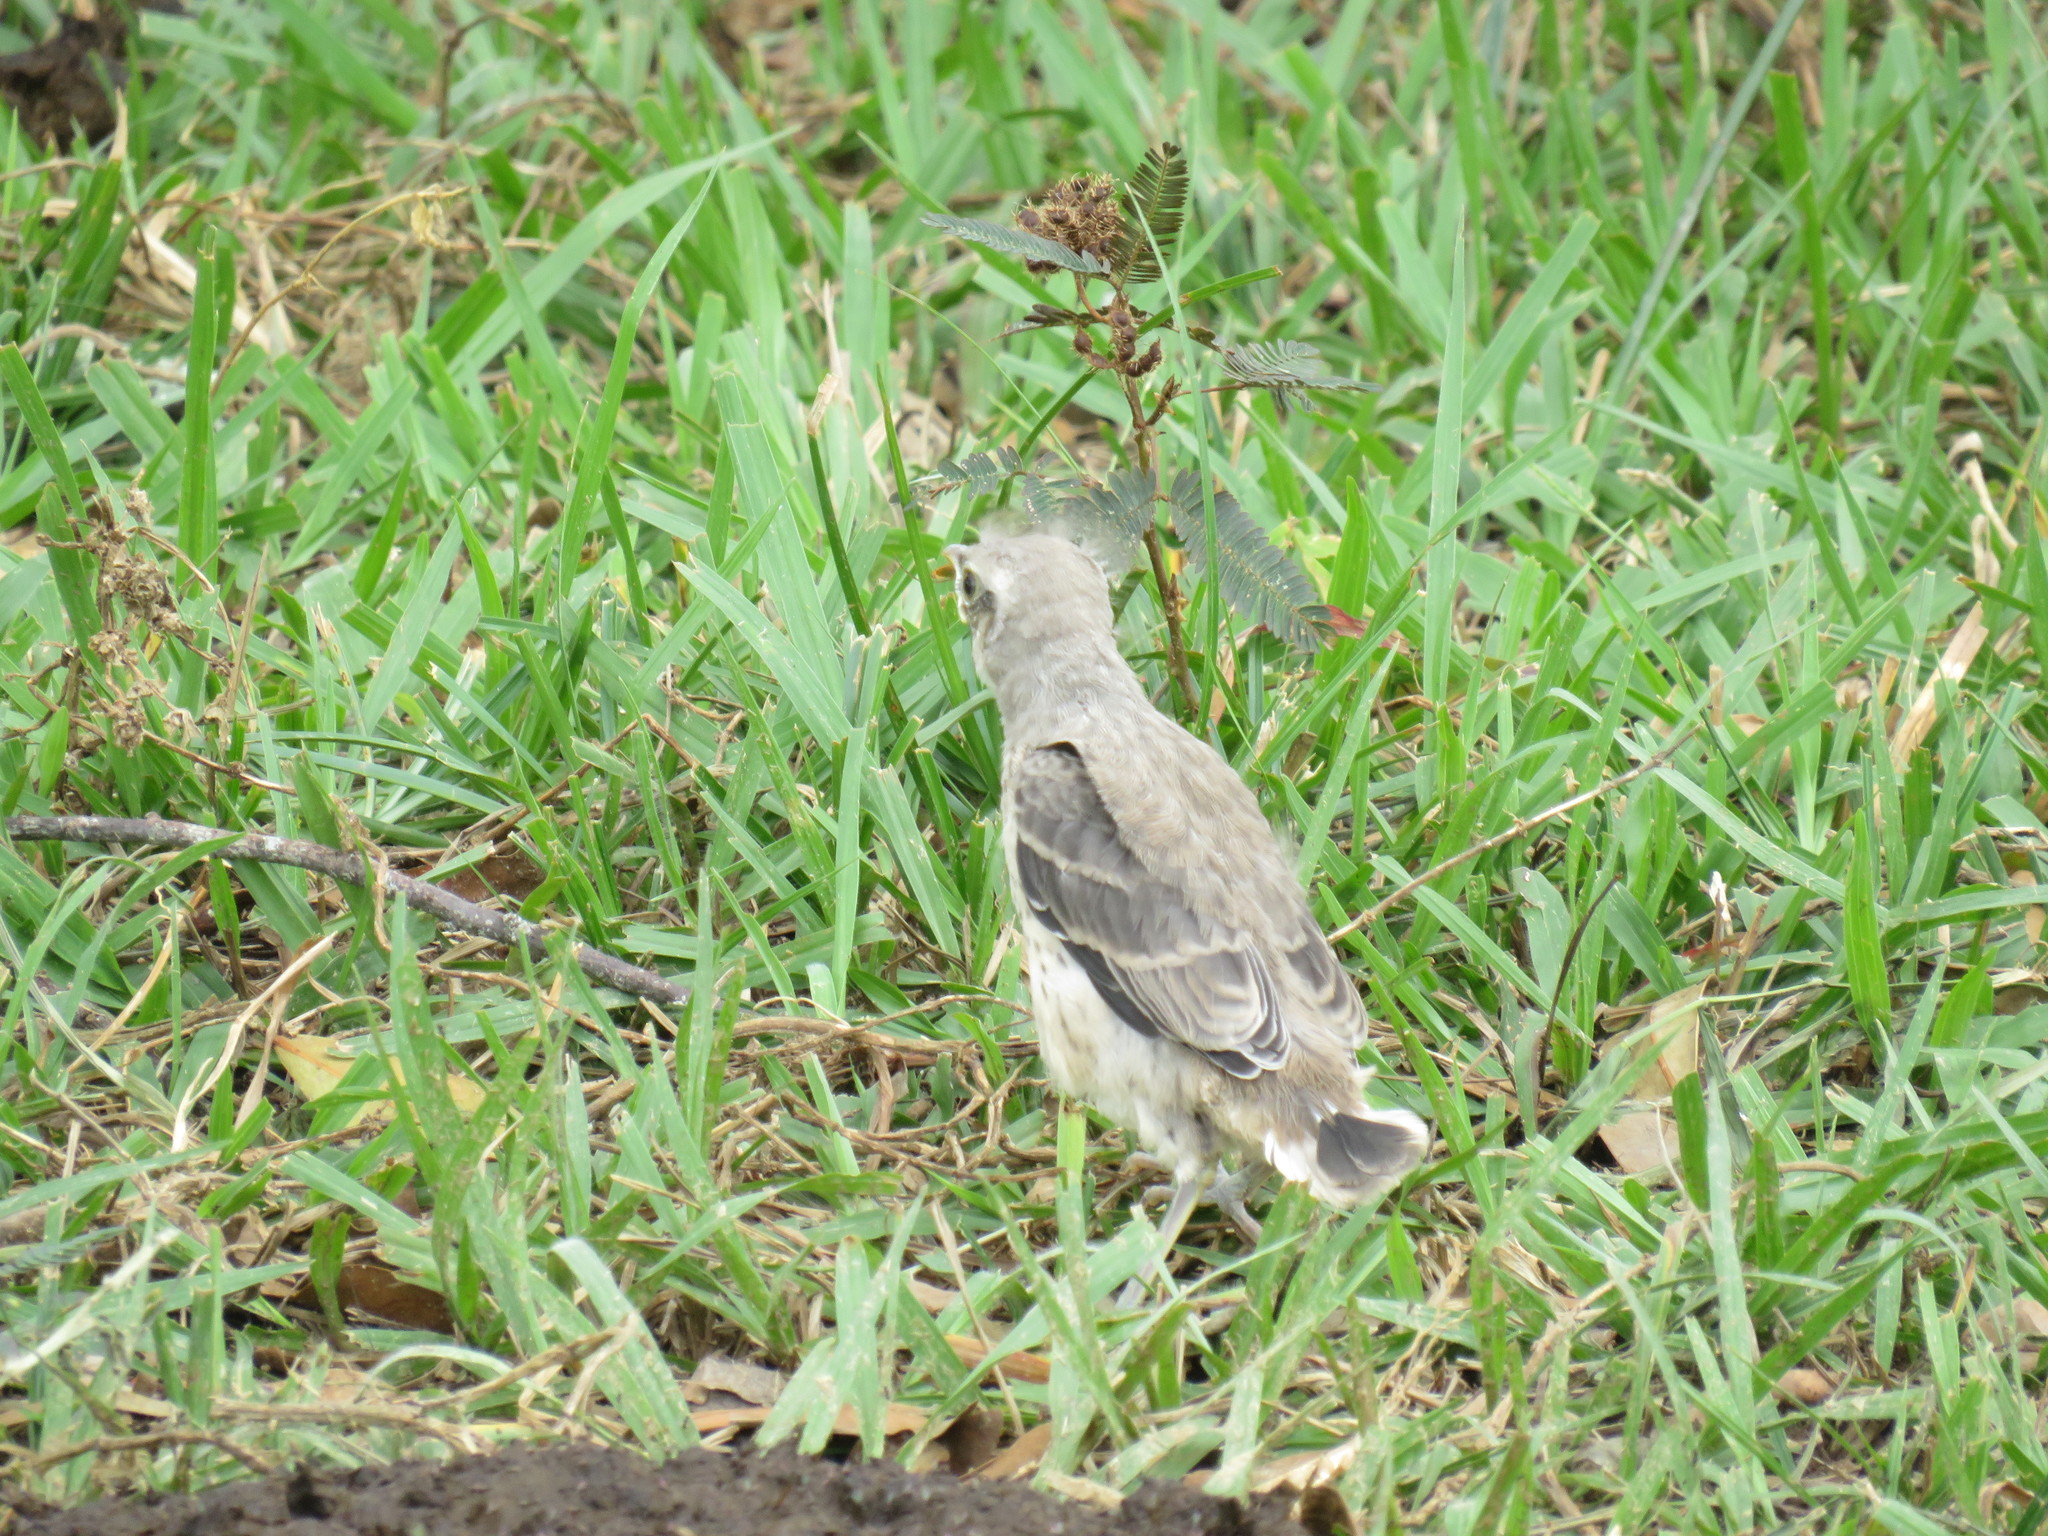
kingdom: Animalia
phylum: Chordata
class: Aves
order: Passeriformes
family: Mimidae
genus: Mimus
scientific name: Mimus gilvus
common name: Tropical mockingbird
